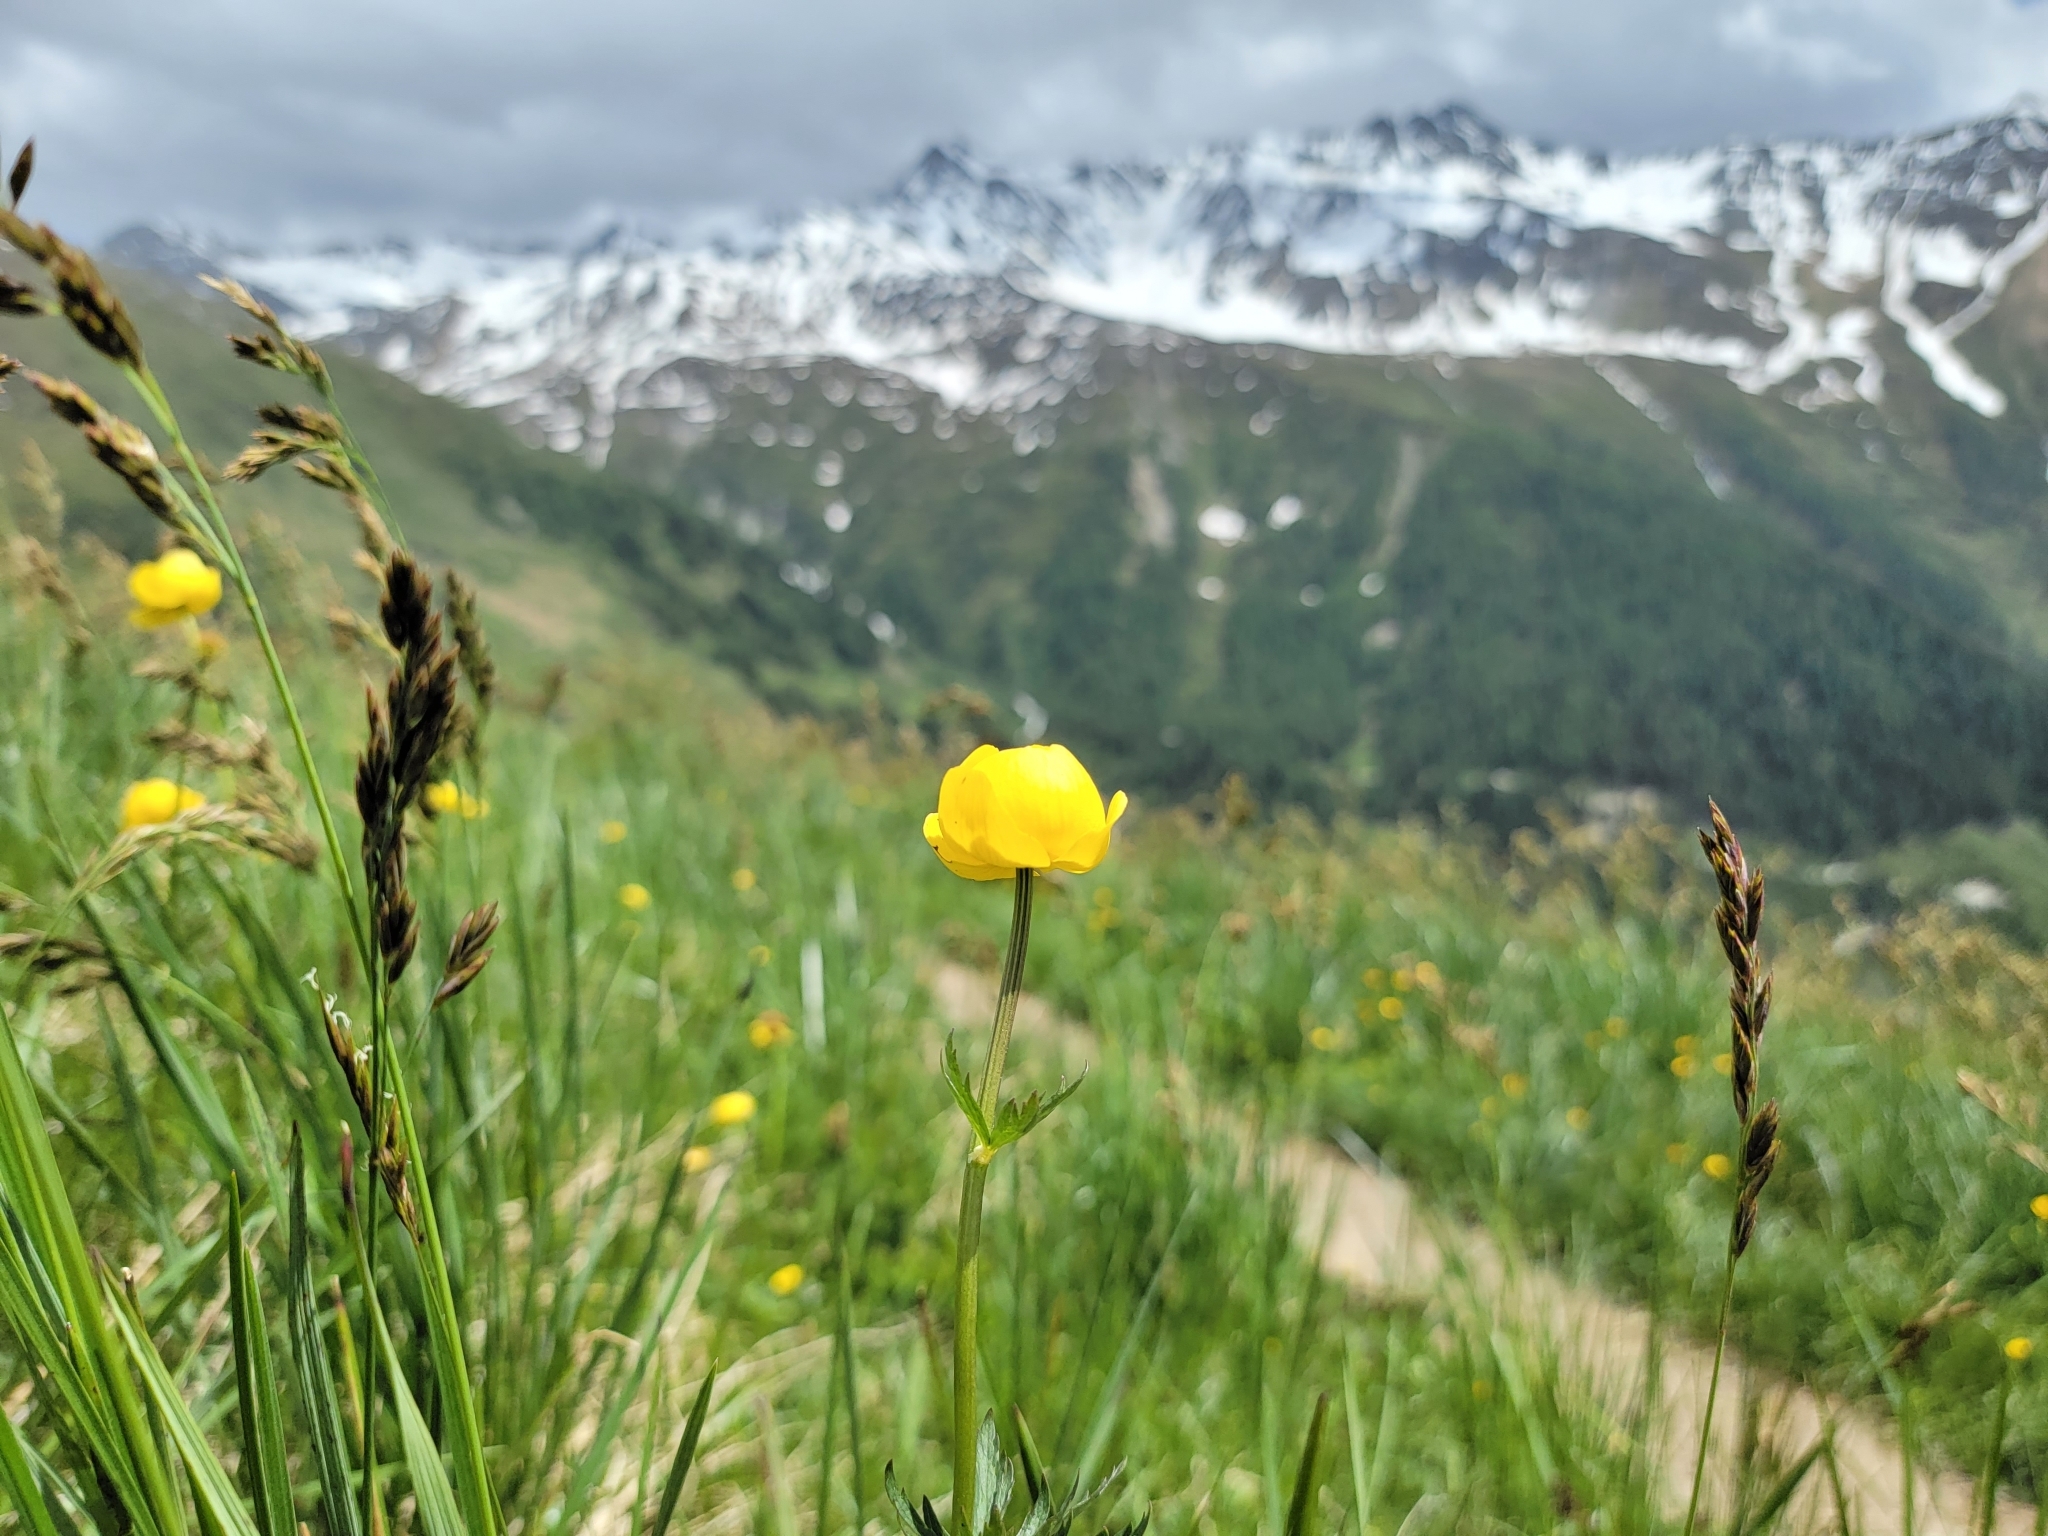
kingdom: Plantae
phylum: Tracheophyta
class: Magnoliopsida
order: Ranunculales
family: Ranunculaceae
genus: Trollius
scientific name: Trollius europaeus
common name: European globeflower
